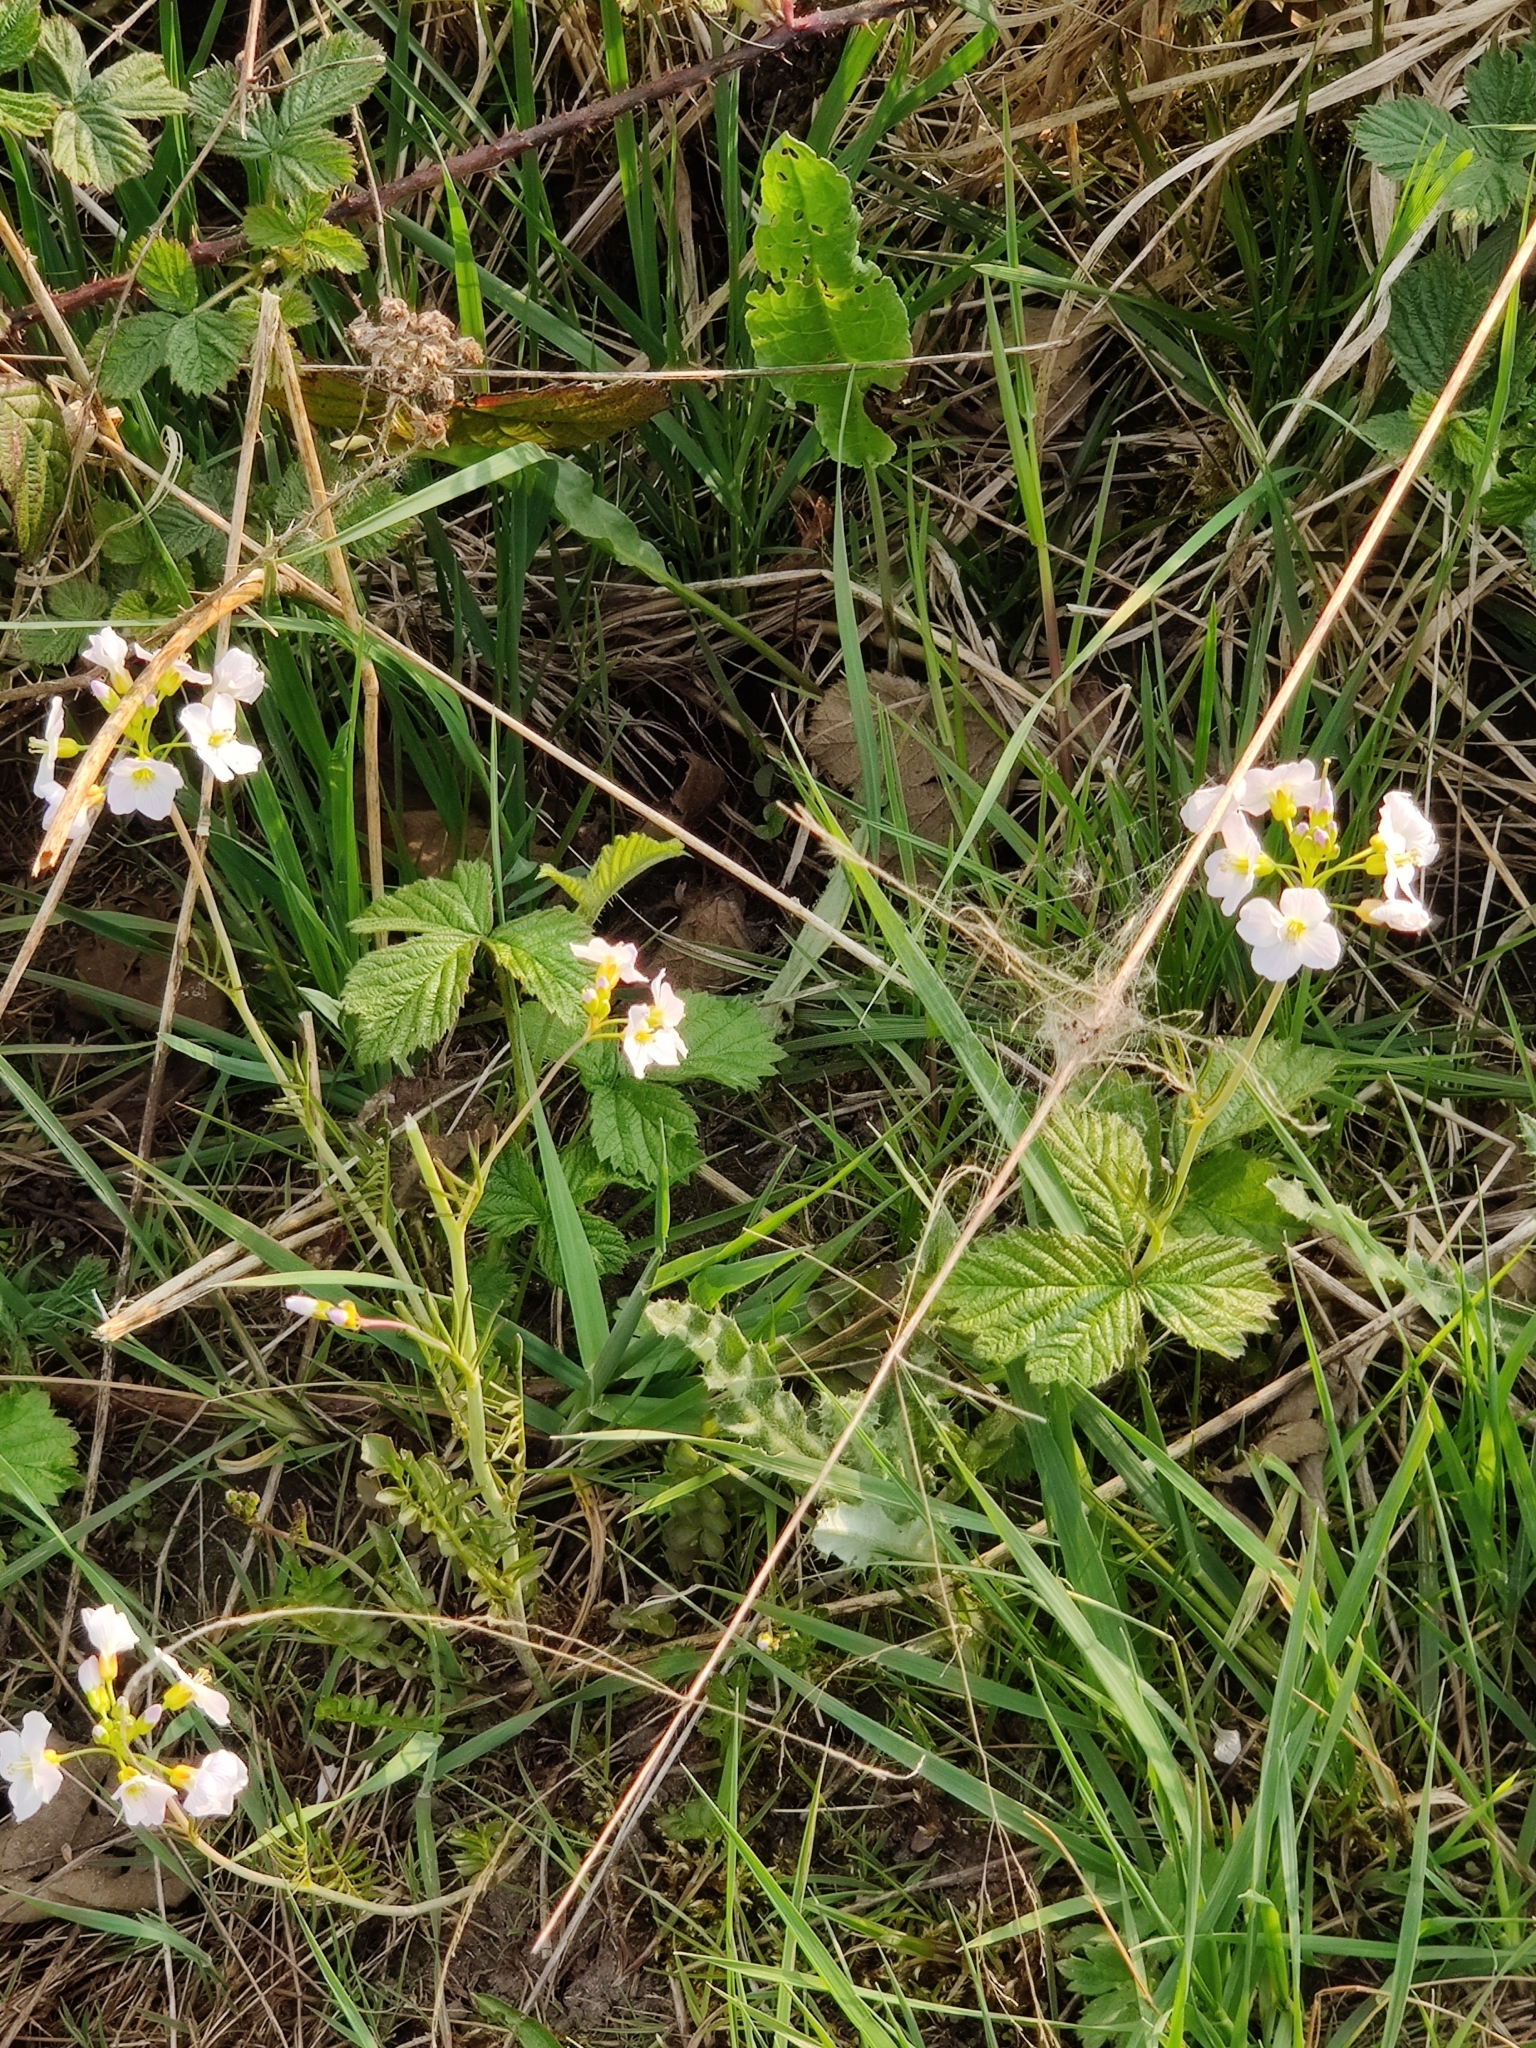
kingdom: Plantae
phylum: Tracheophyta
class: Magnoliopsida
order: Brassicales
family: Brassicaceae
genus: Cardamine
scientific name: Cardamine pratensis
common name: Cuckoo flower
